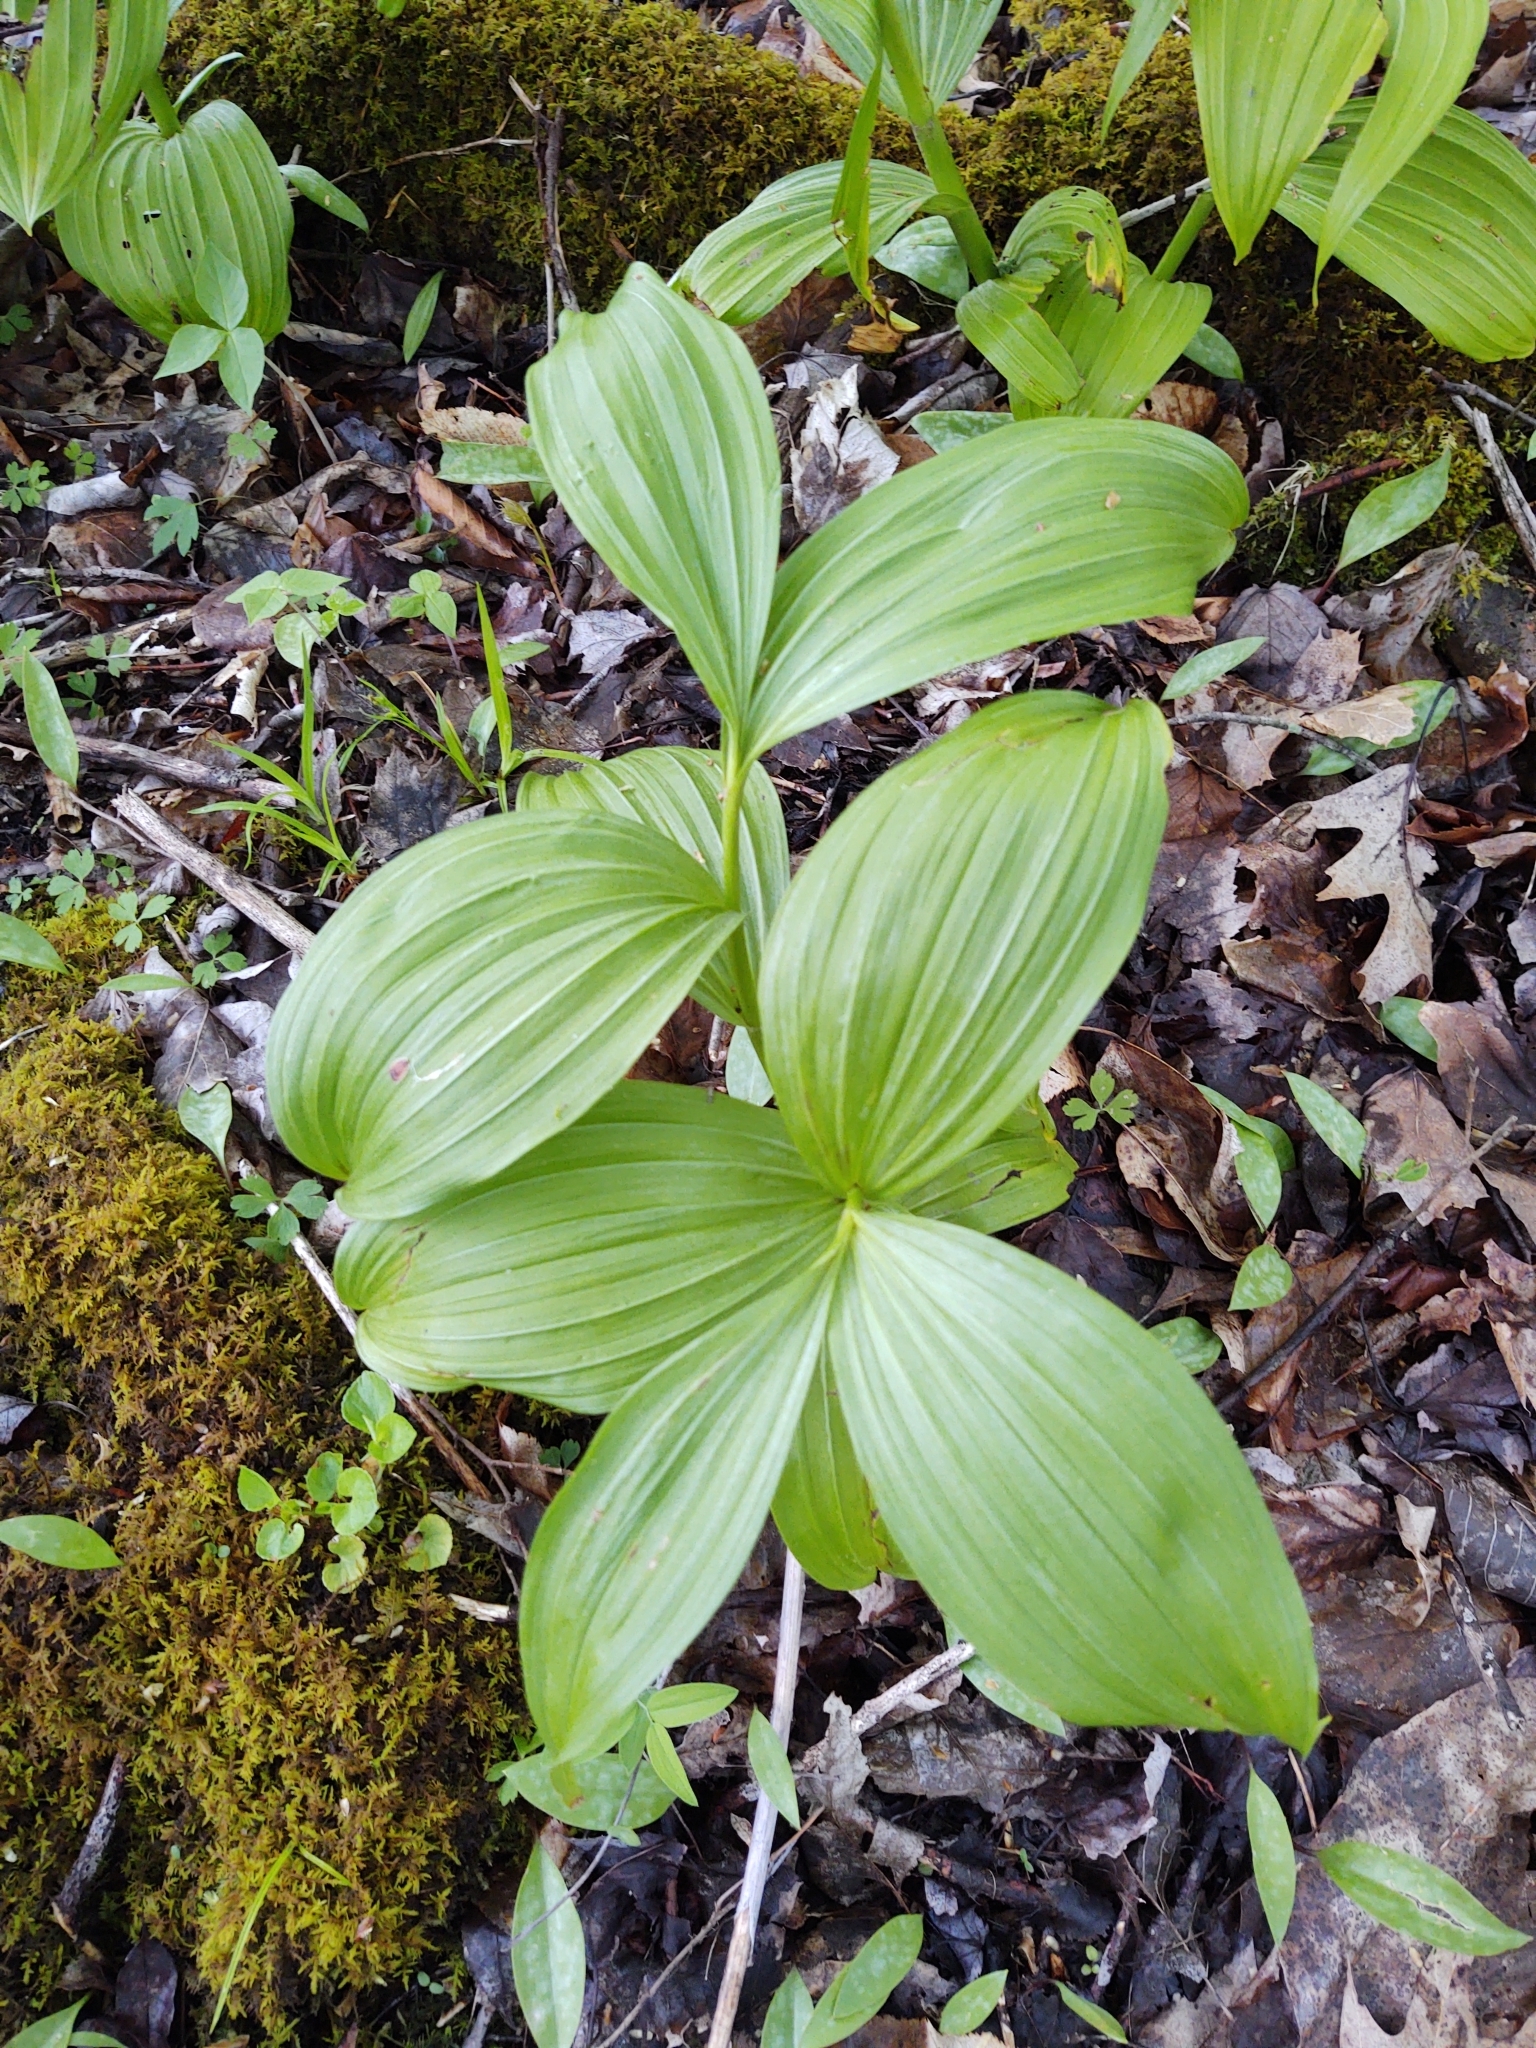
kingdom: Plantae
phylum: Tracheophyta
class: Liliopsida
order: Liliales
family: Melanthiaceae
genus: Veratrum
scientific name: Veratrum viride
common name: American false hellebore
